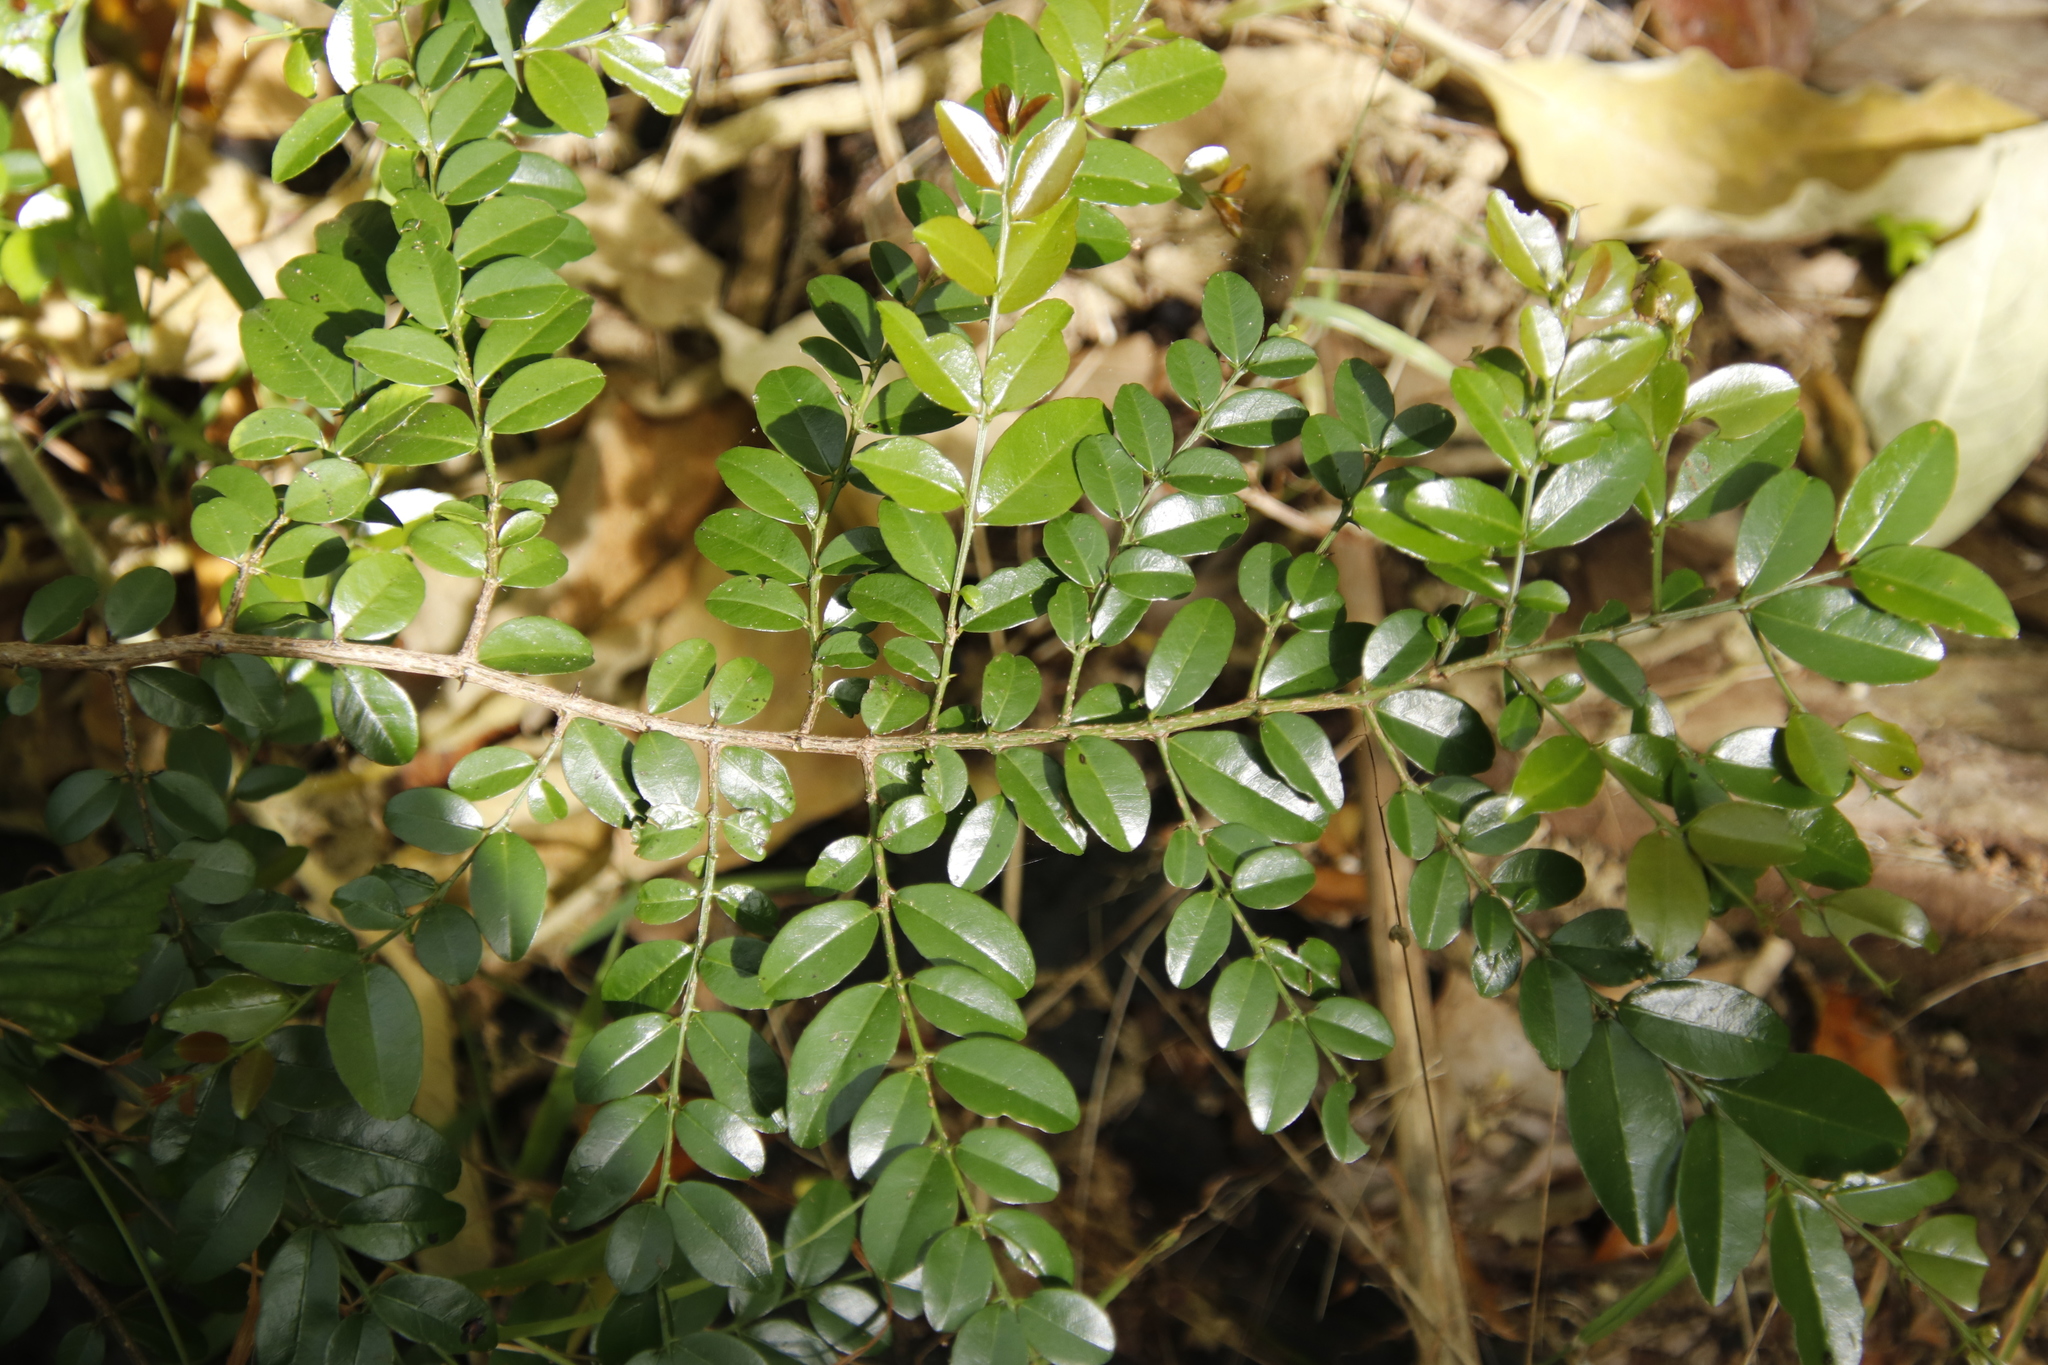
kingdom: Plantae
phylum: Tracheophyta
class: Magnoliopsida
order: Rosales
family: Rhamnaceae
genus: Scutia
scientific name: Scutia myrtina
